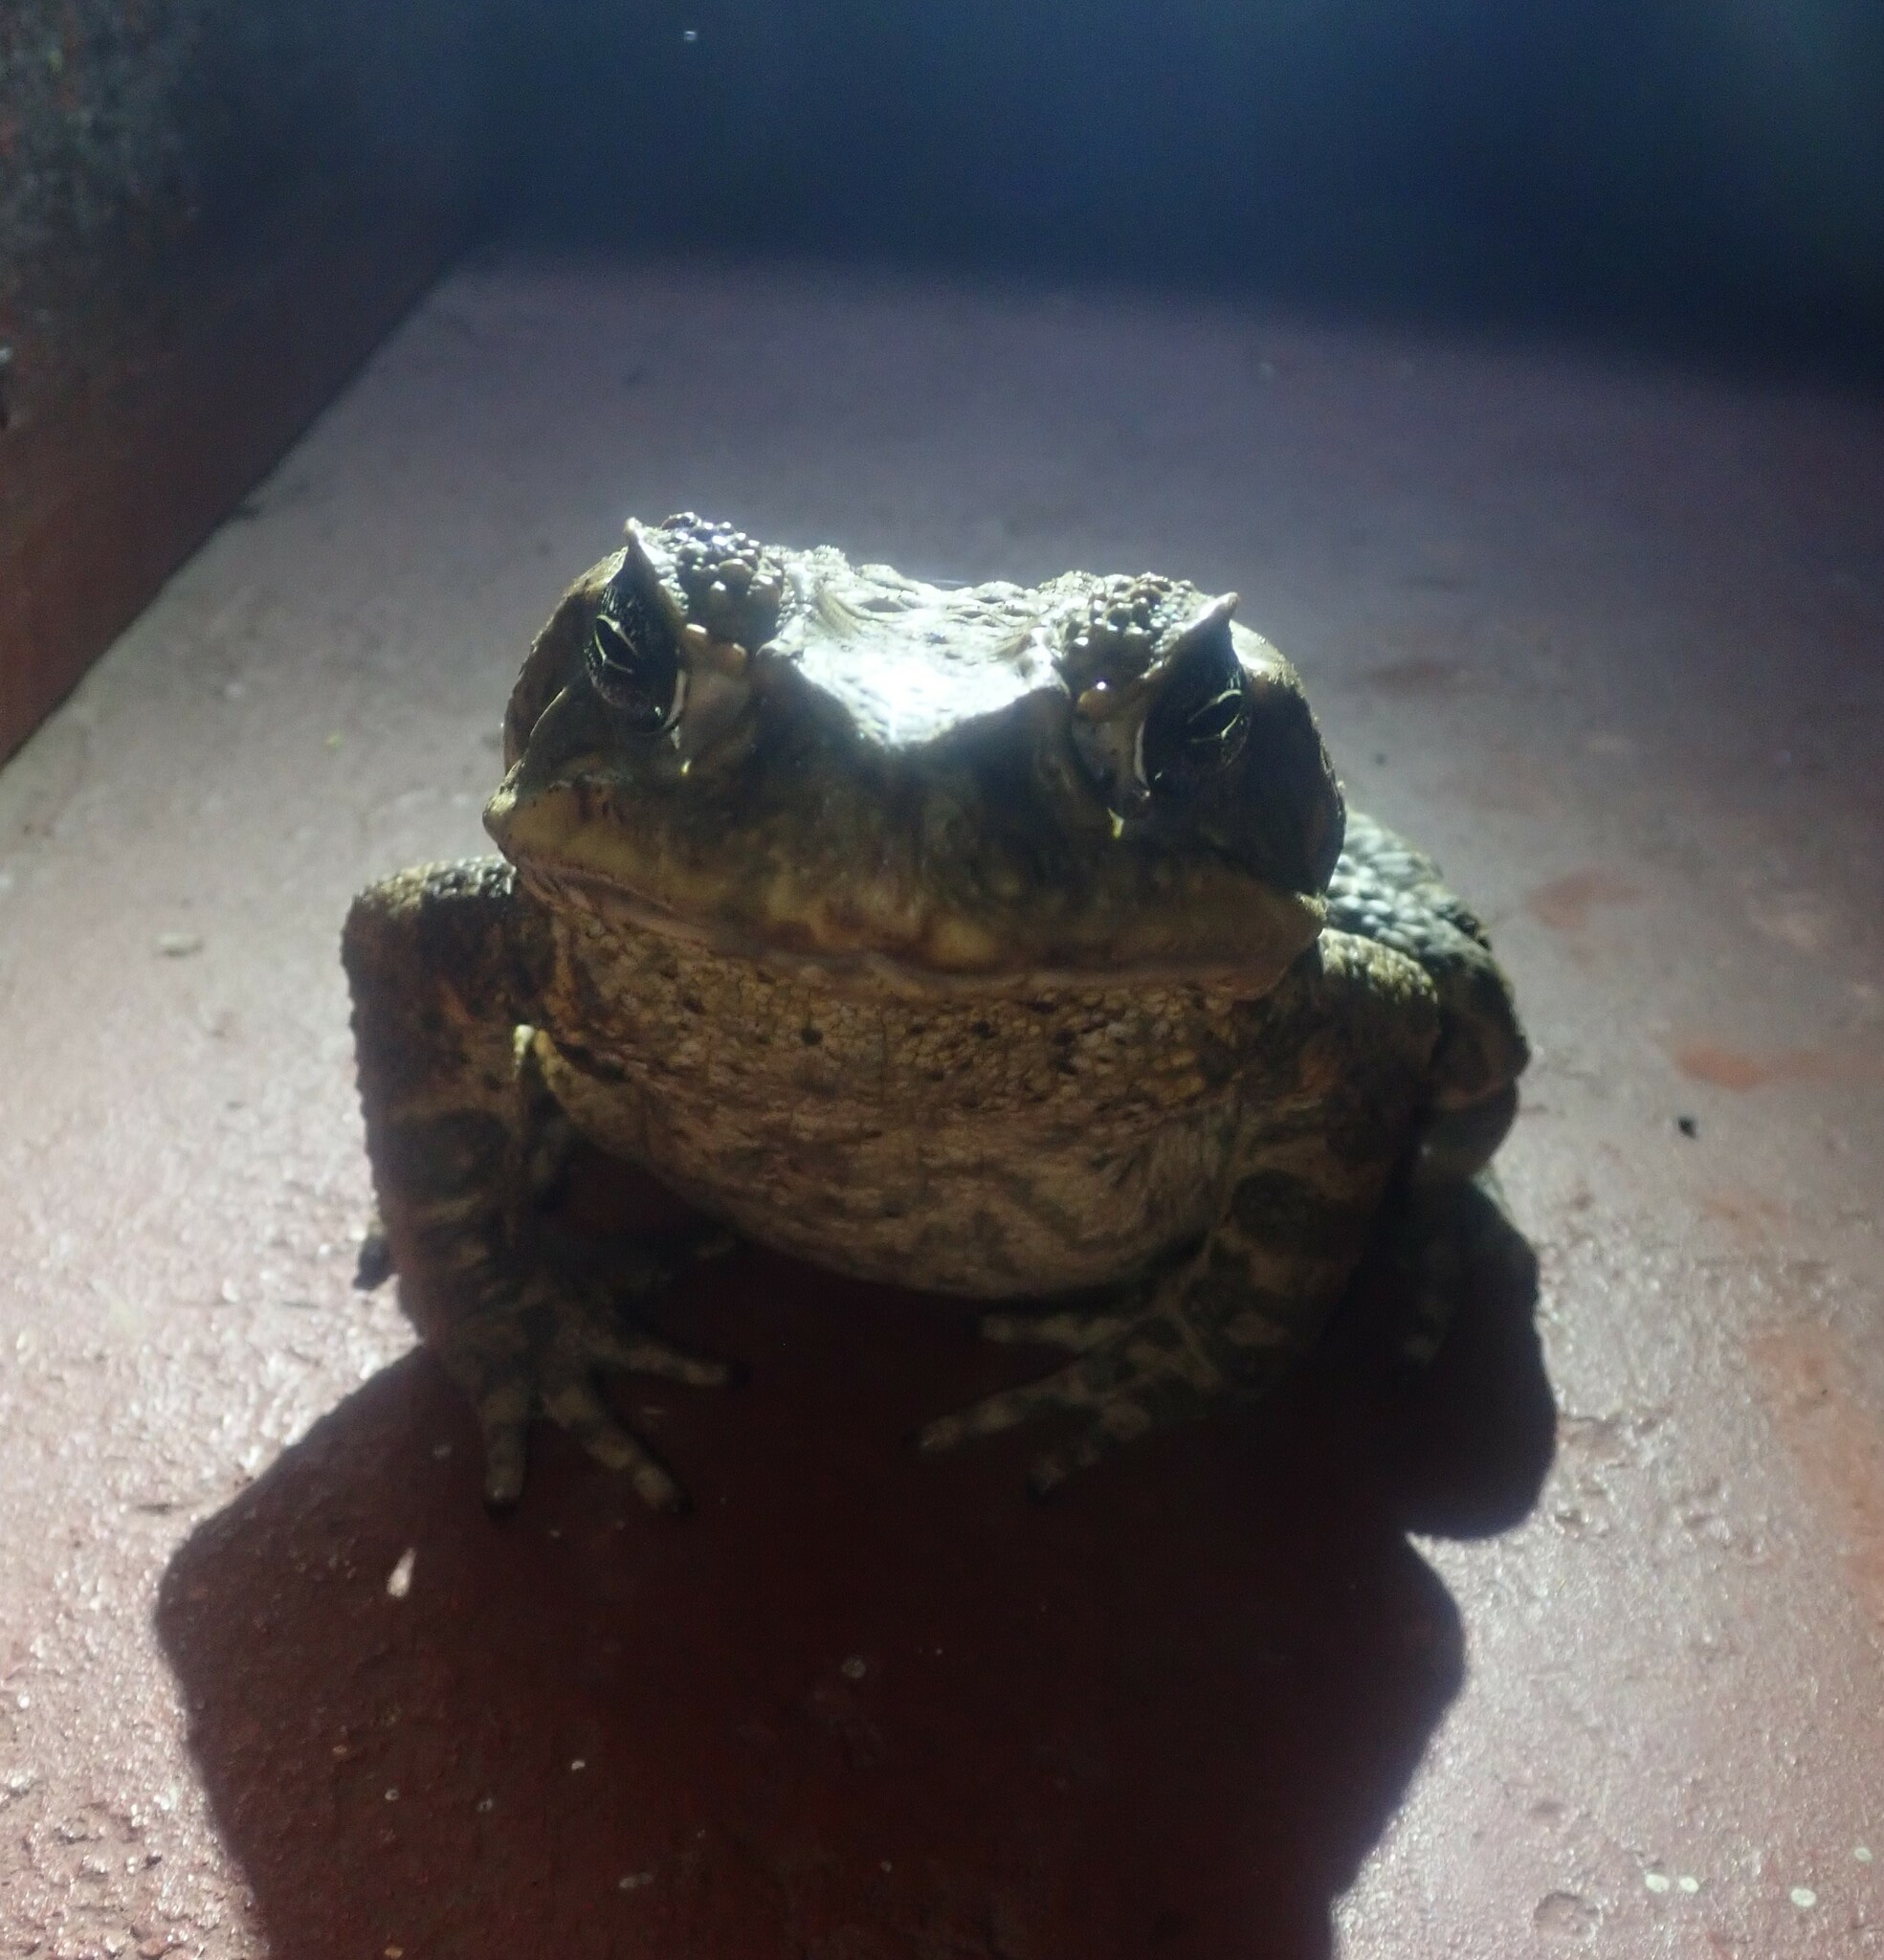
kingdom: Animalia
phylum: Chordata
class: Amphibia
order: Anura
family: Bufonidae
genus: Rhinella
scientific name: Rhinella marina
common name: Cane toad
